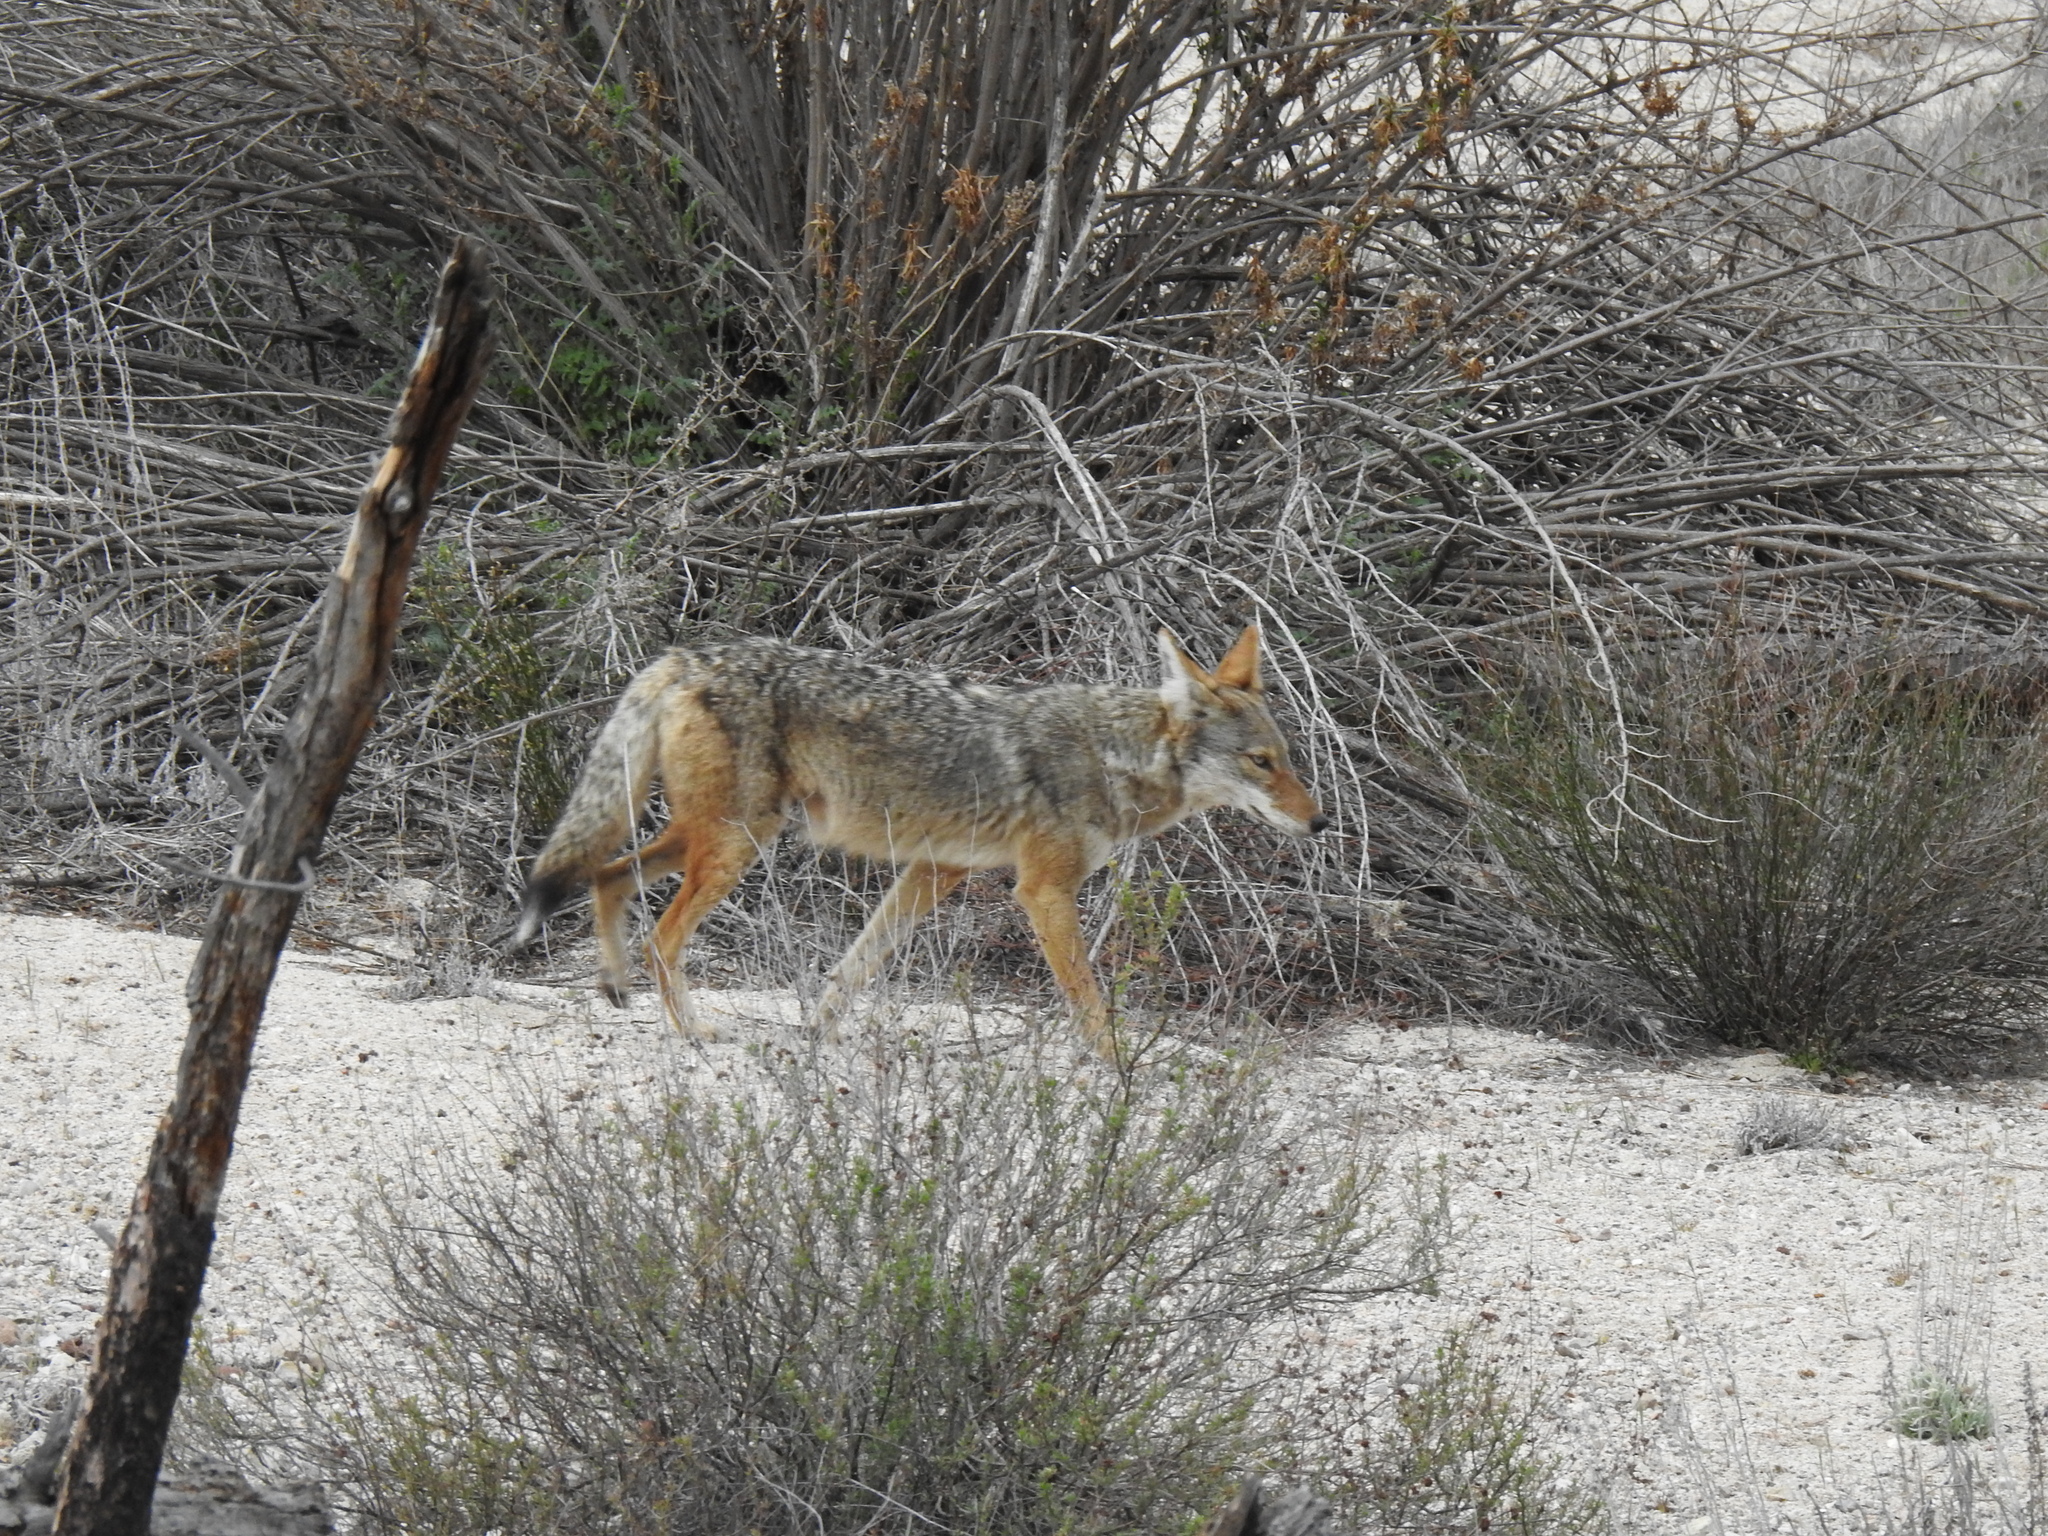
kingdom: Animalia
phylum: Chordata
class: Mammalia
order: Carnivora
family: Canidae
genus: Canis
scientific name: Canis latrans
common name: Coyote
